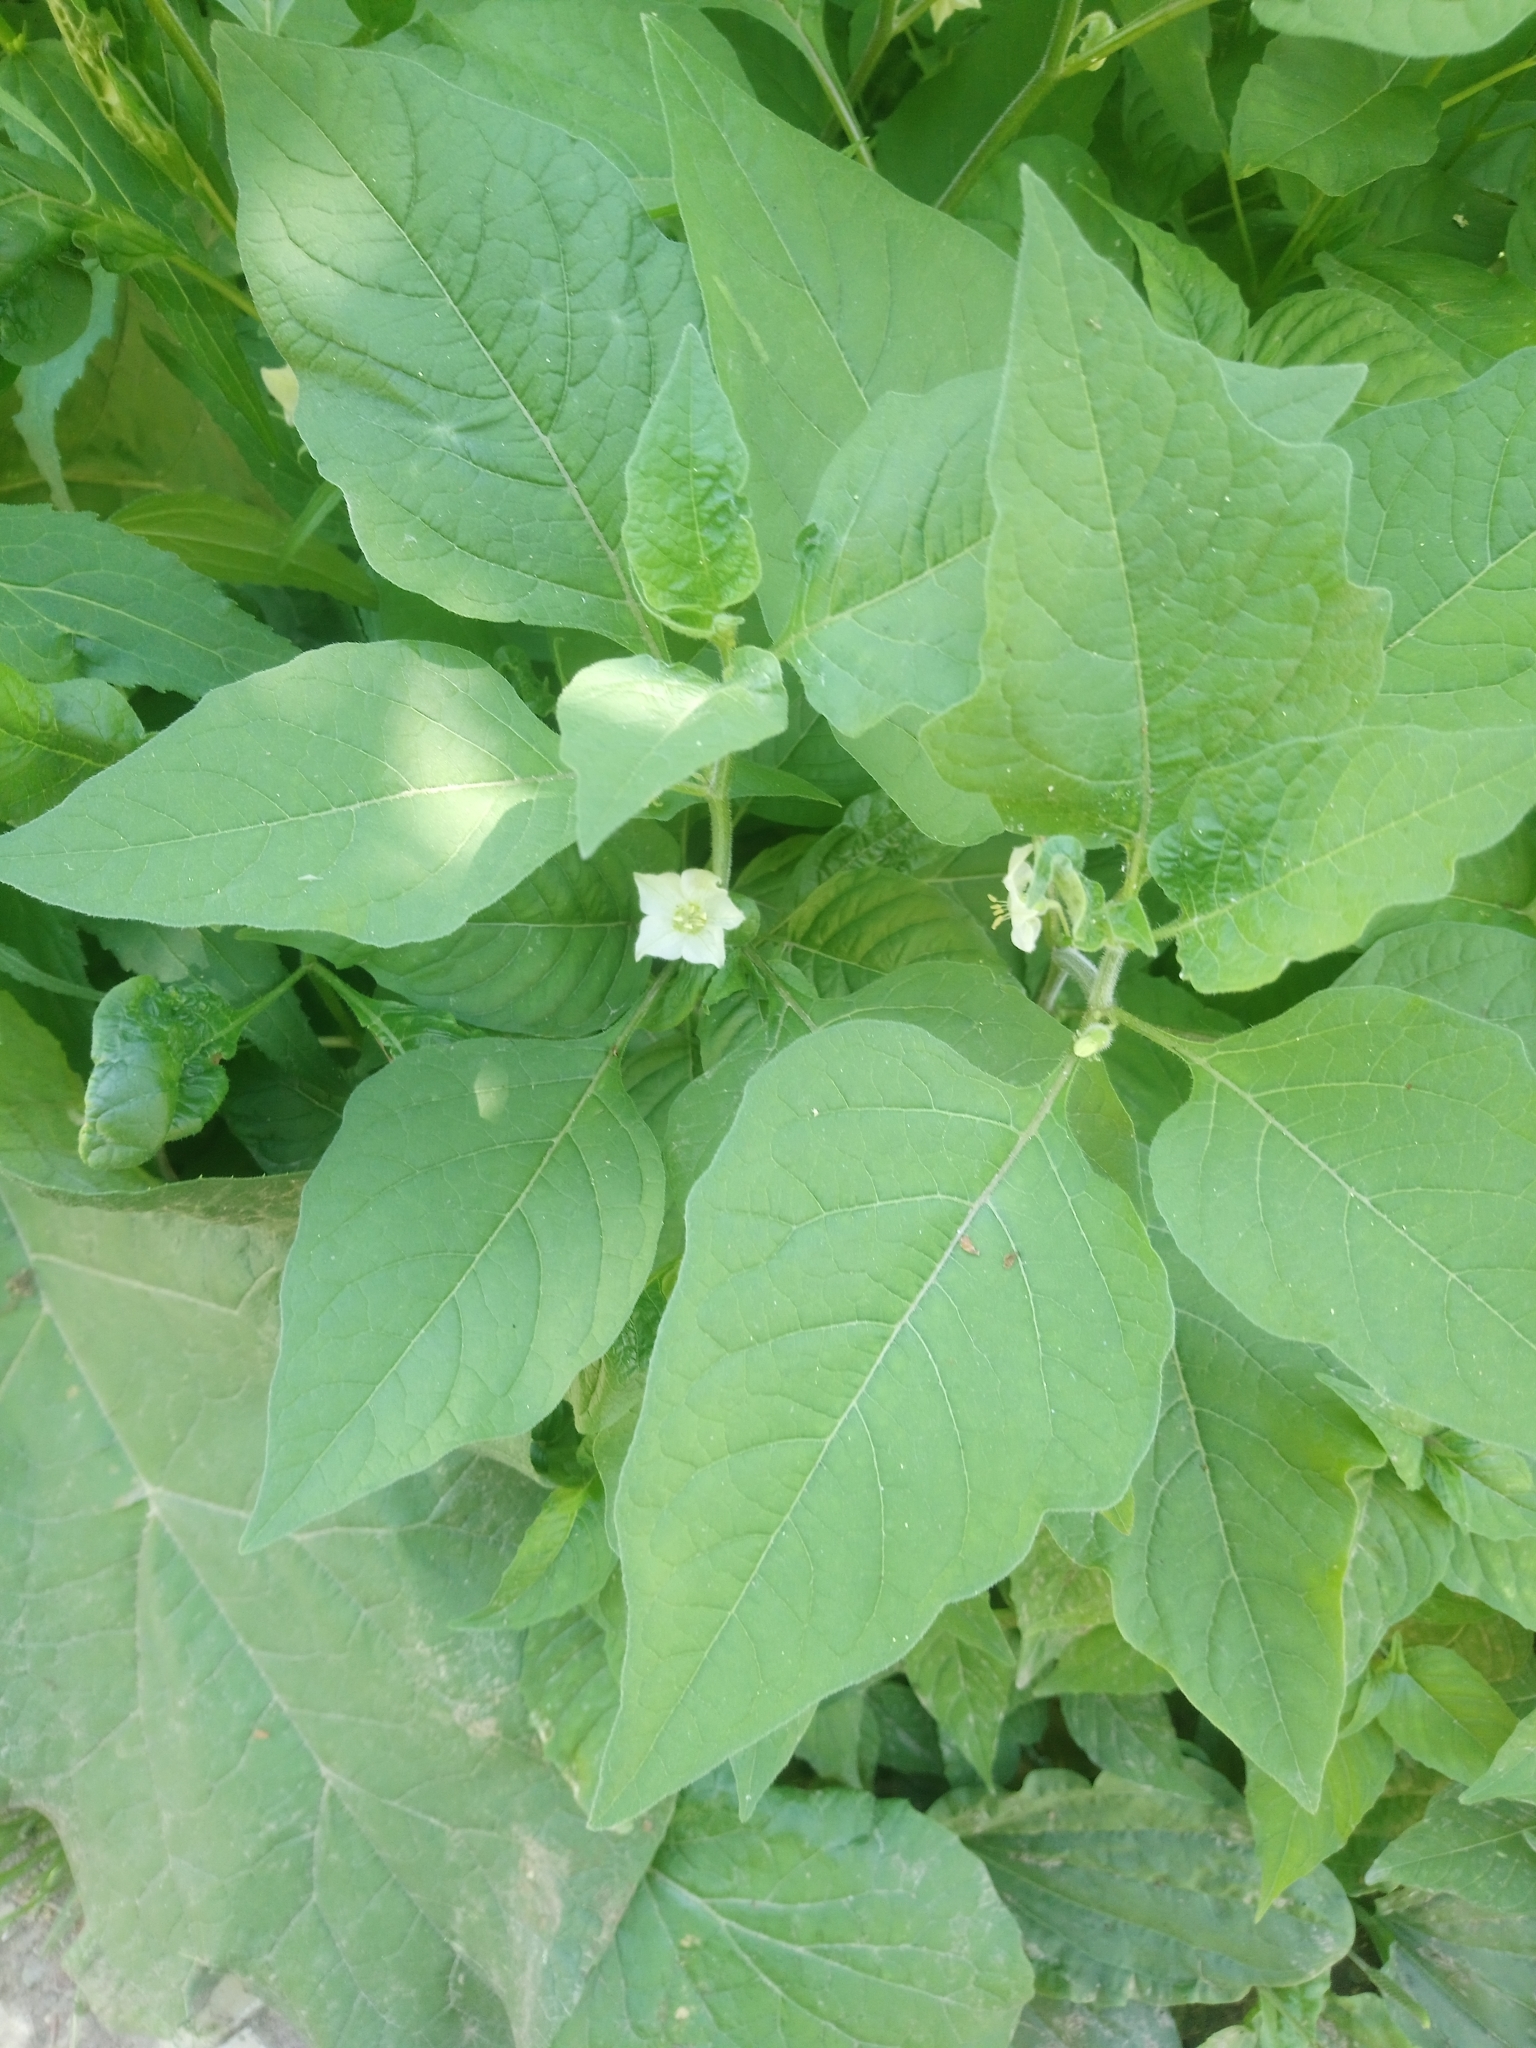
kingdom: Plantae
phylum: Tracheophyta
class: Magnoliopsida
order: Solanales
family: Solanaceae
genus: Alkekengi
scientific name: Alkekengi officinarum
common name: Japanese-lantern
